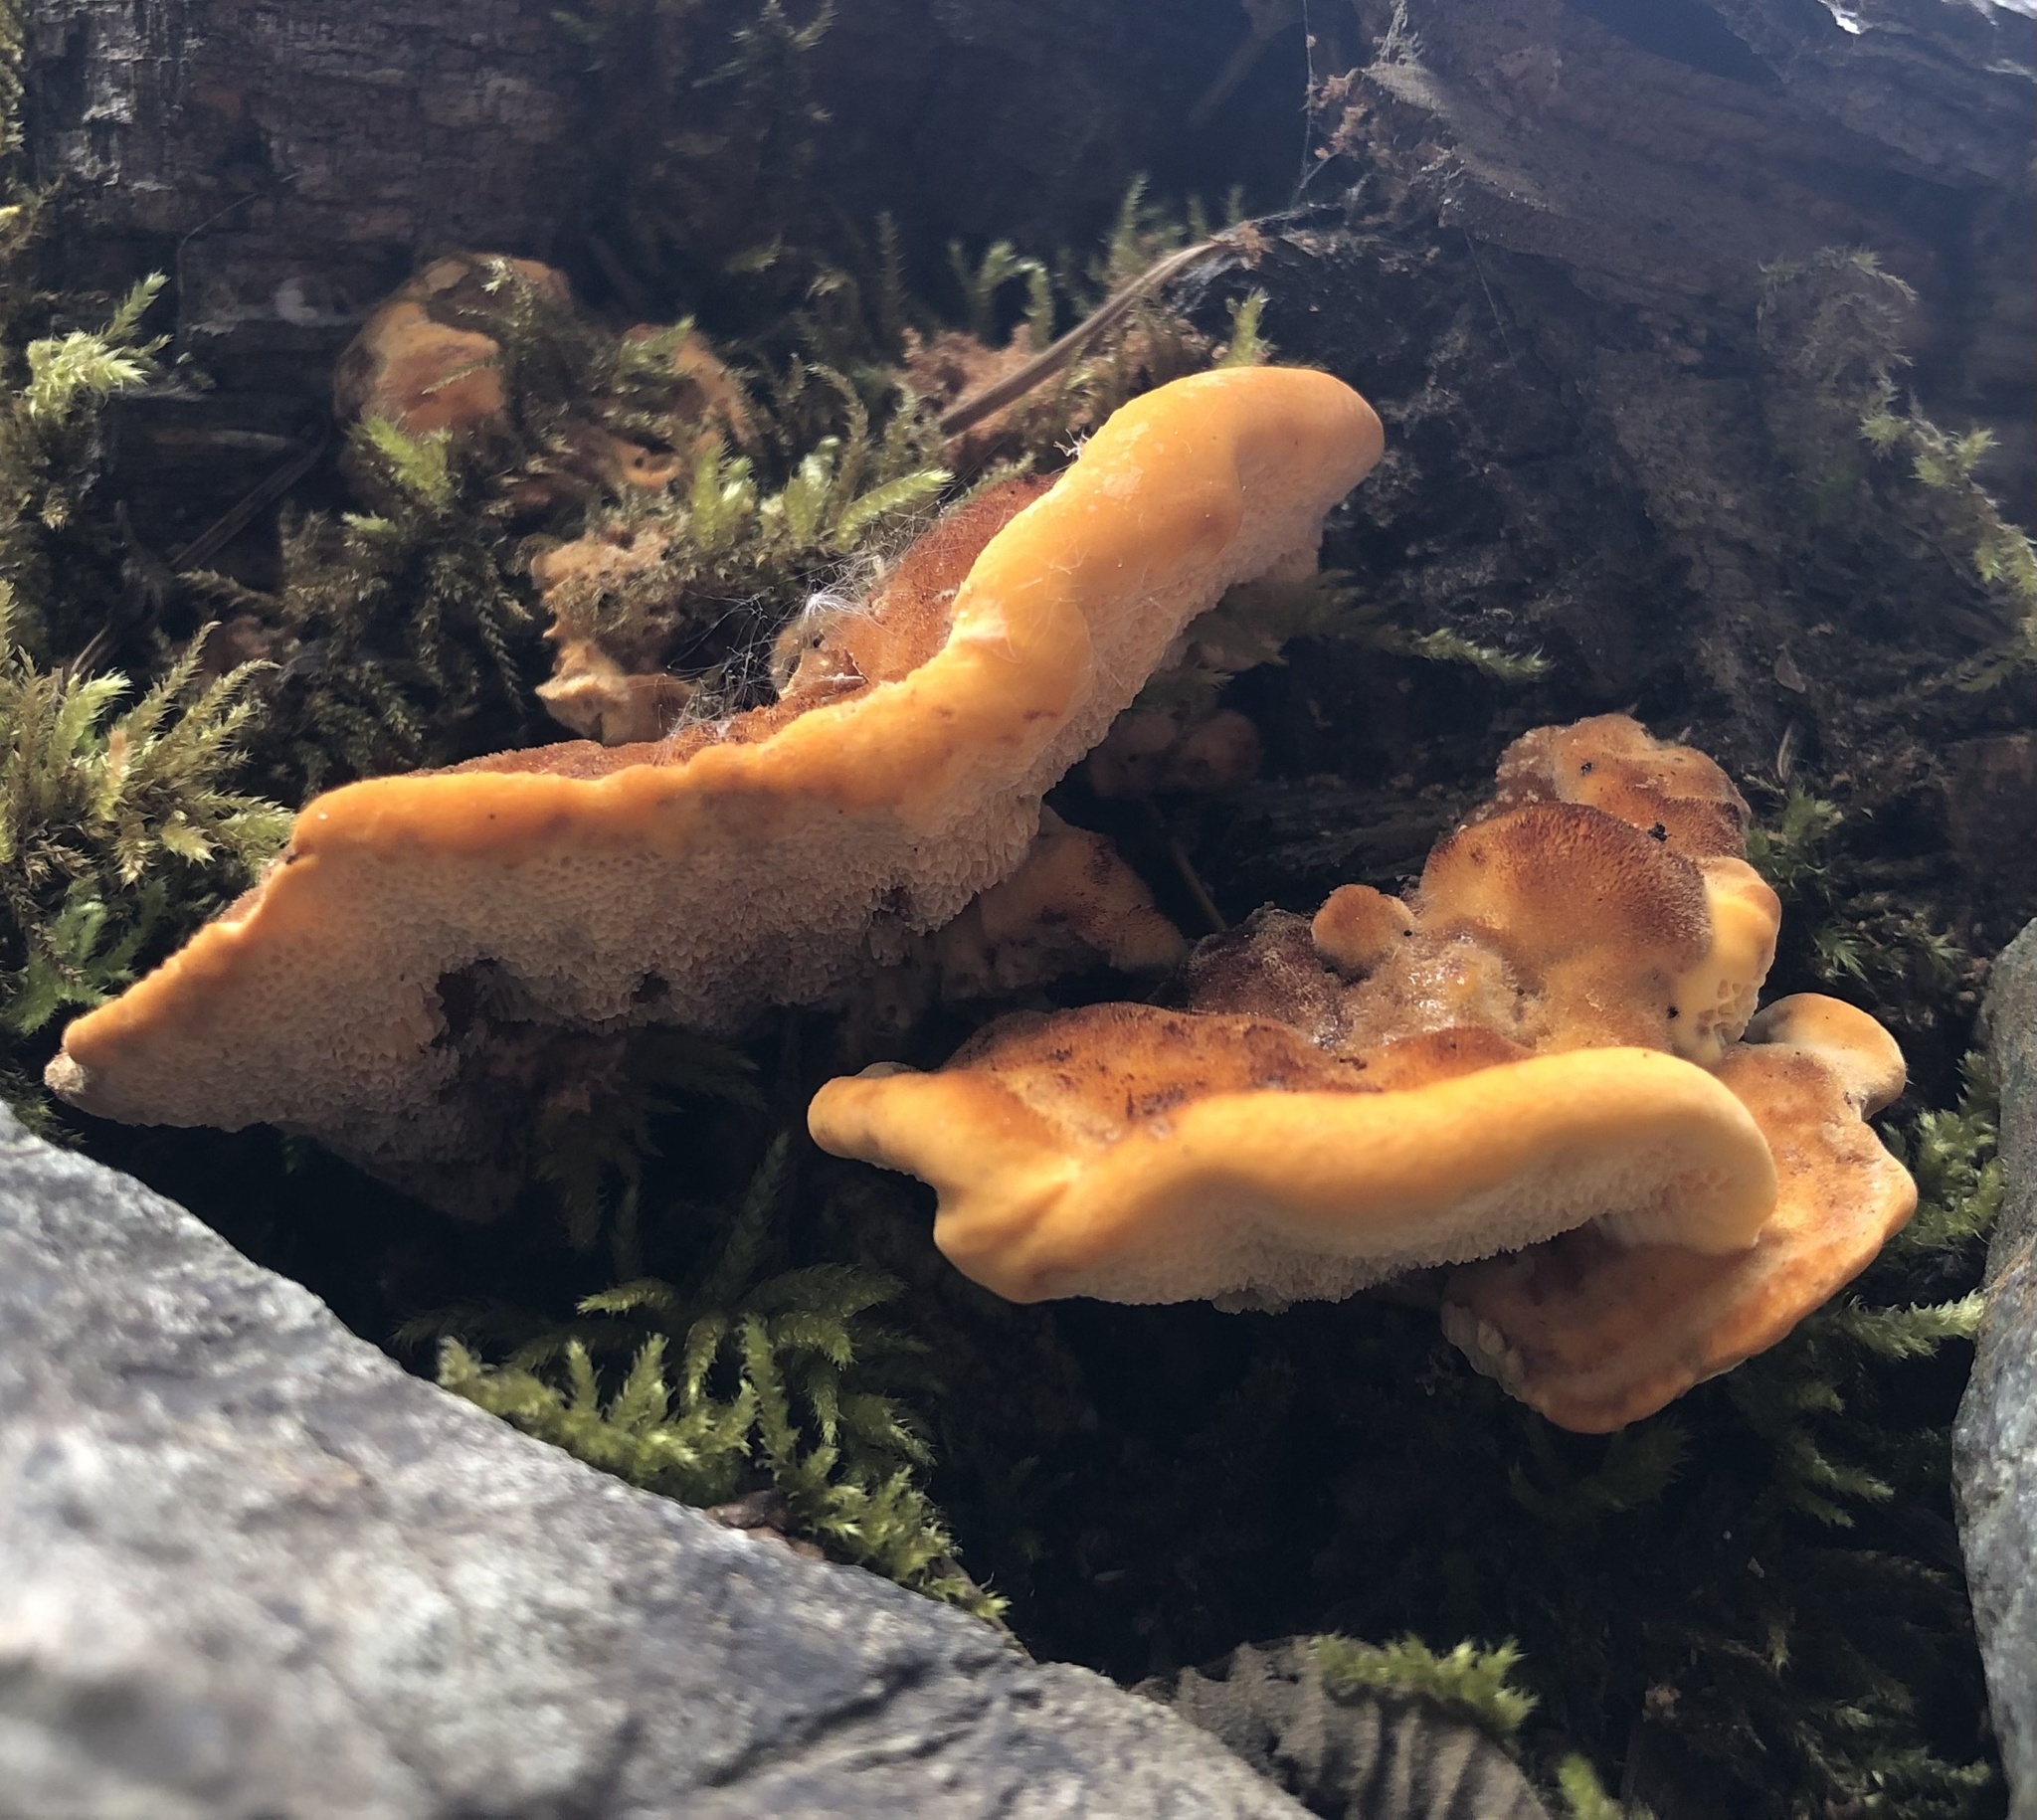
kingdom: Fungi
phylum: Basidiomycota
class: Agaricomycetes
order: Polyporales
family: Pycnoporellaceae
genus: Pycnoporellus
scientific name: Pycnoporellus fulgens
